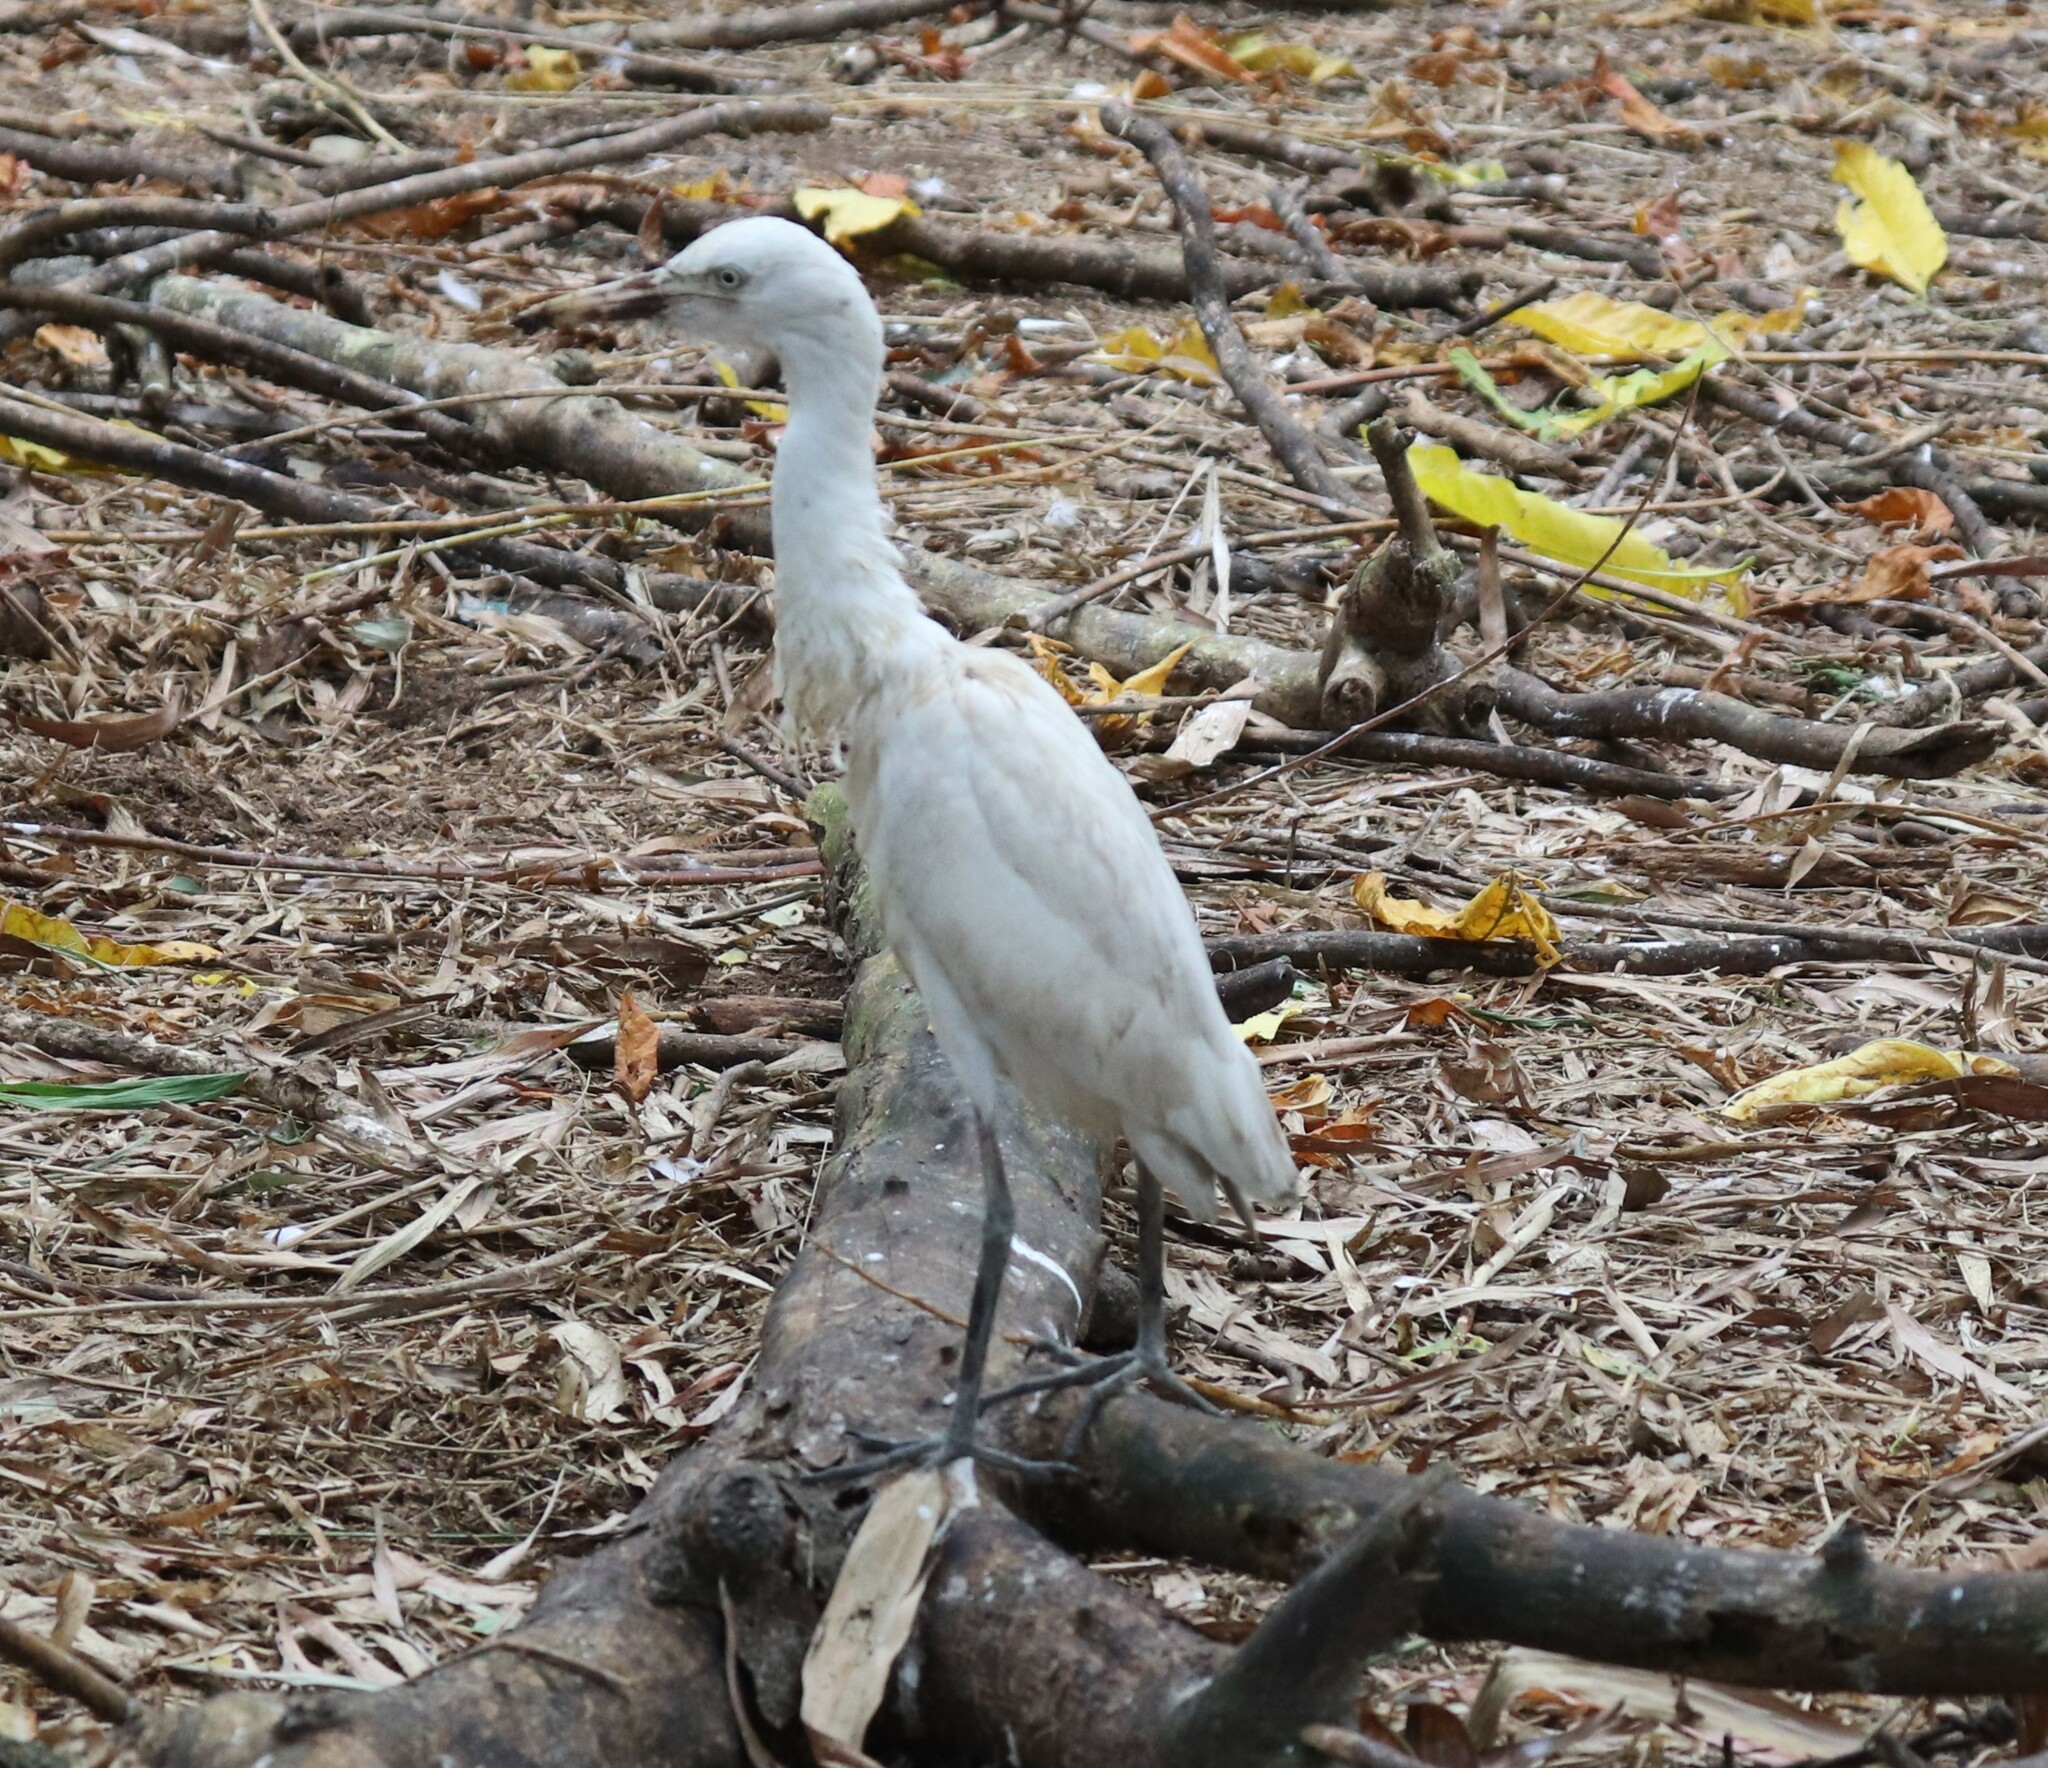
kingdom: Animalia
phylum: Chordata
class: Aves
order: Pelecaniformes
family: Ardeidae
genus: Bubulcus
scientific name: Bubulcus coromandus
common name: Eastern cattle egret
